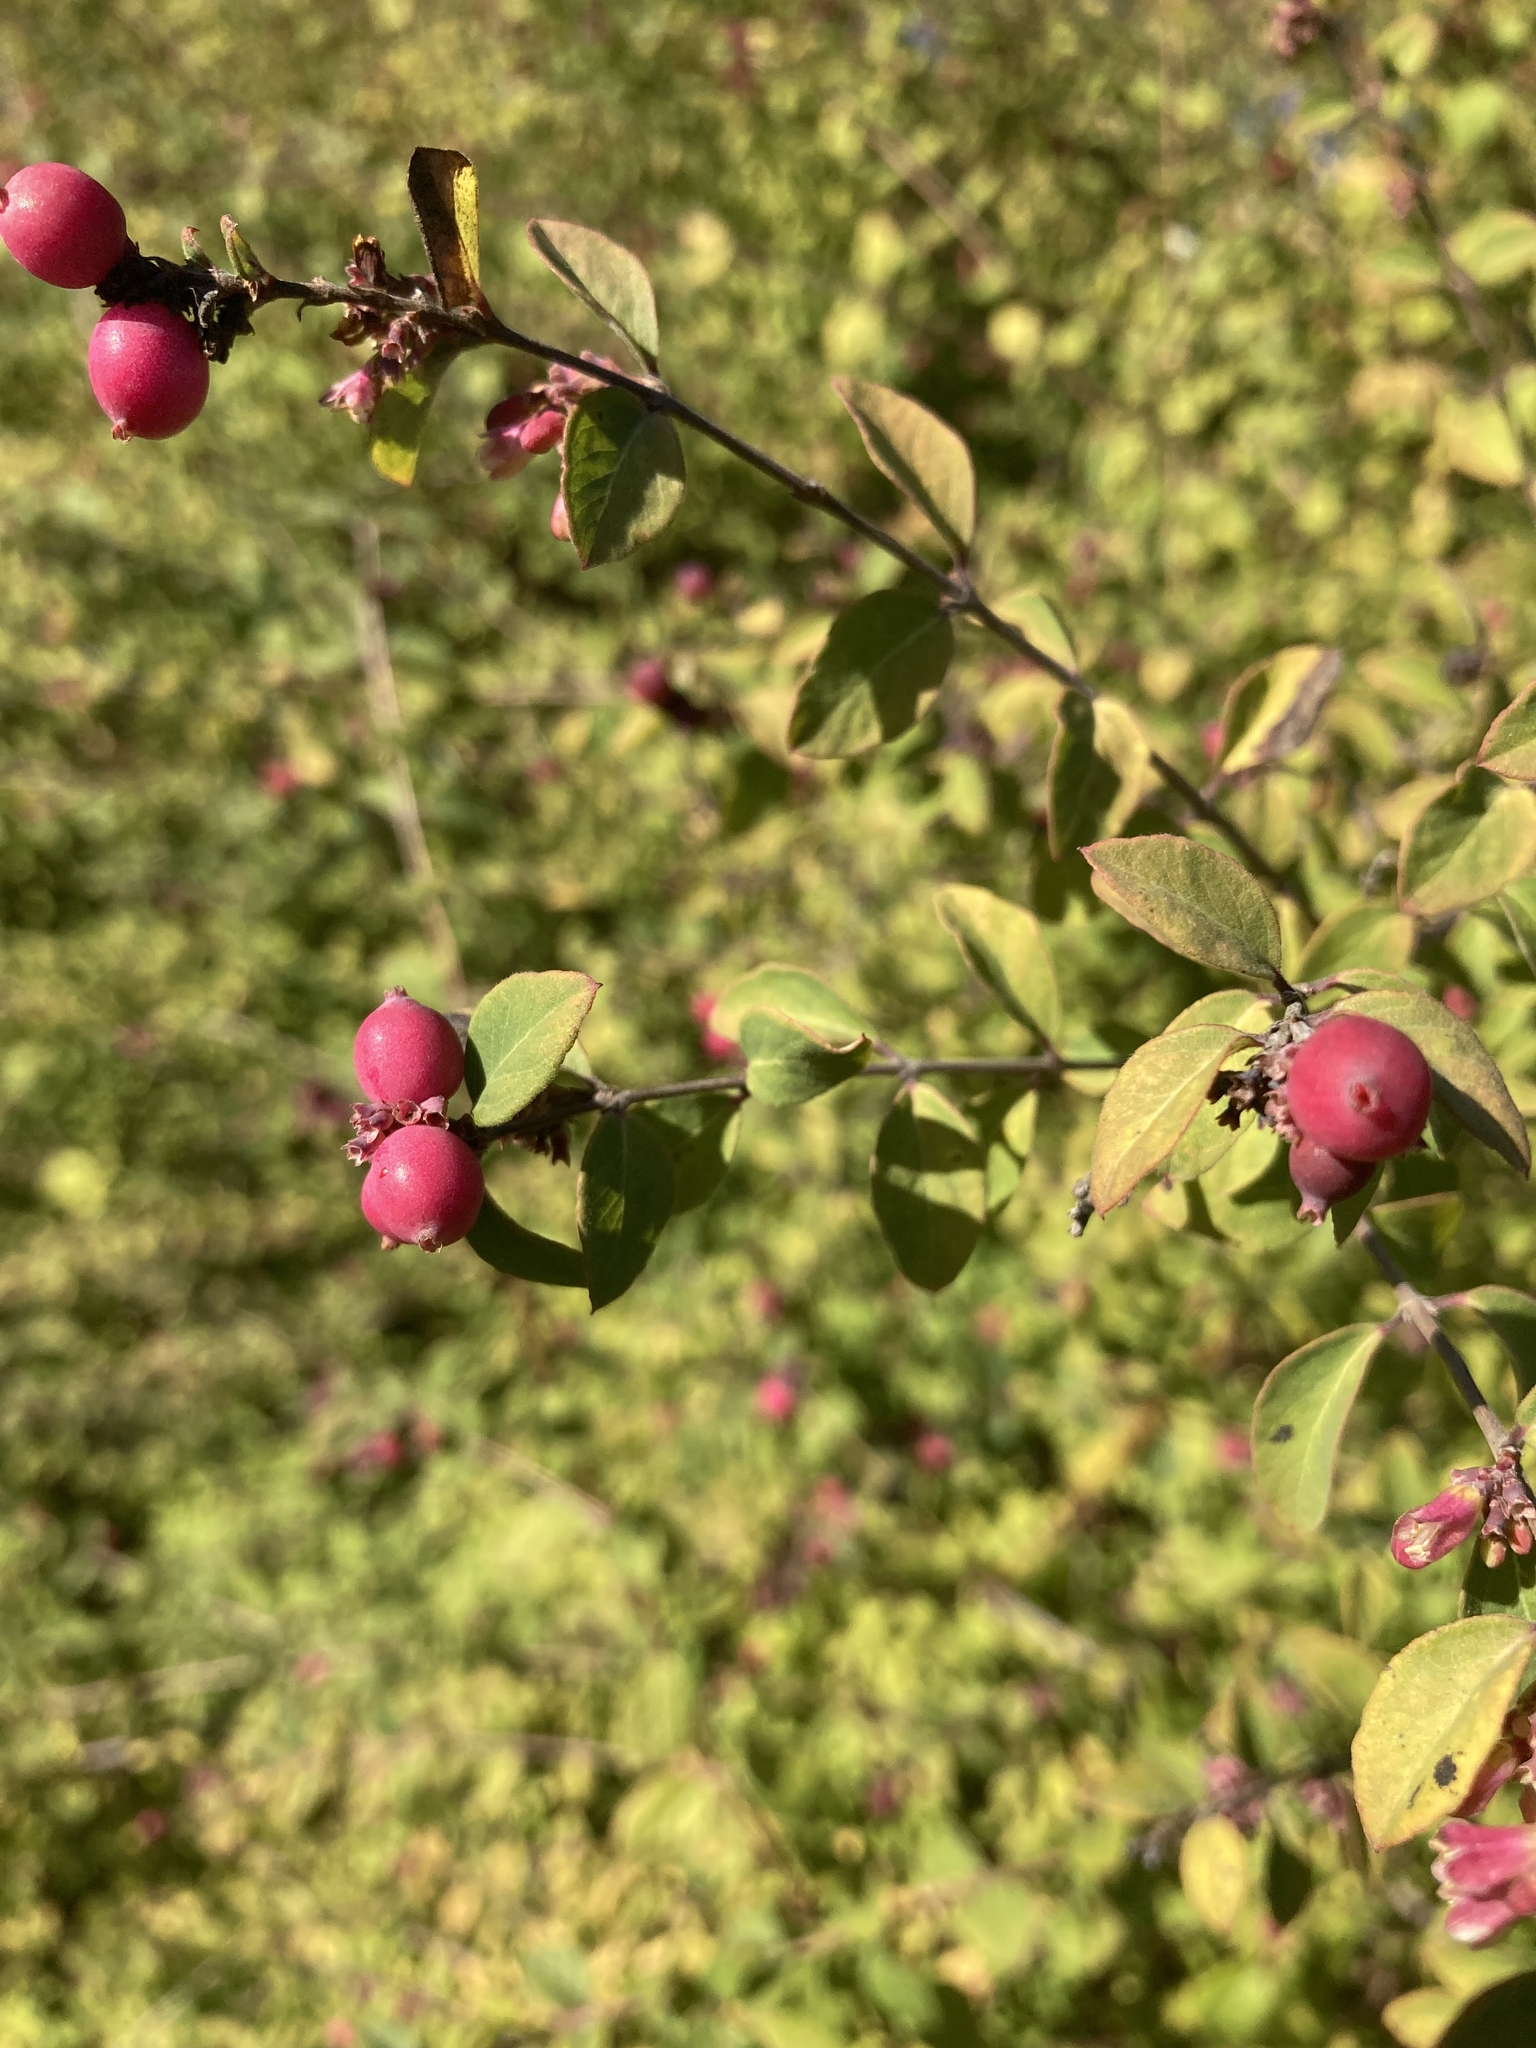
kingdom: Plantae
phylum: Tracheophyta
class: Magnoliopsida
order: Dipsacales
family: Caprifoliaceae
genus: Symphoricarpos
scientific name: Symphoricarpos orbiculatus
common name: Coralberry
